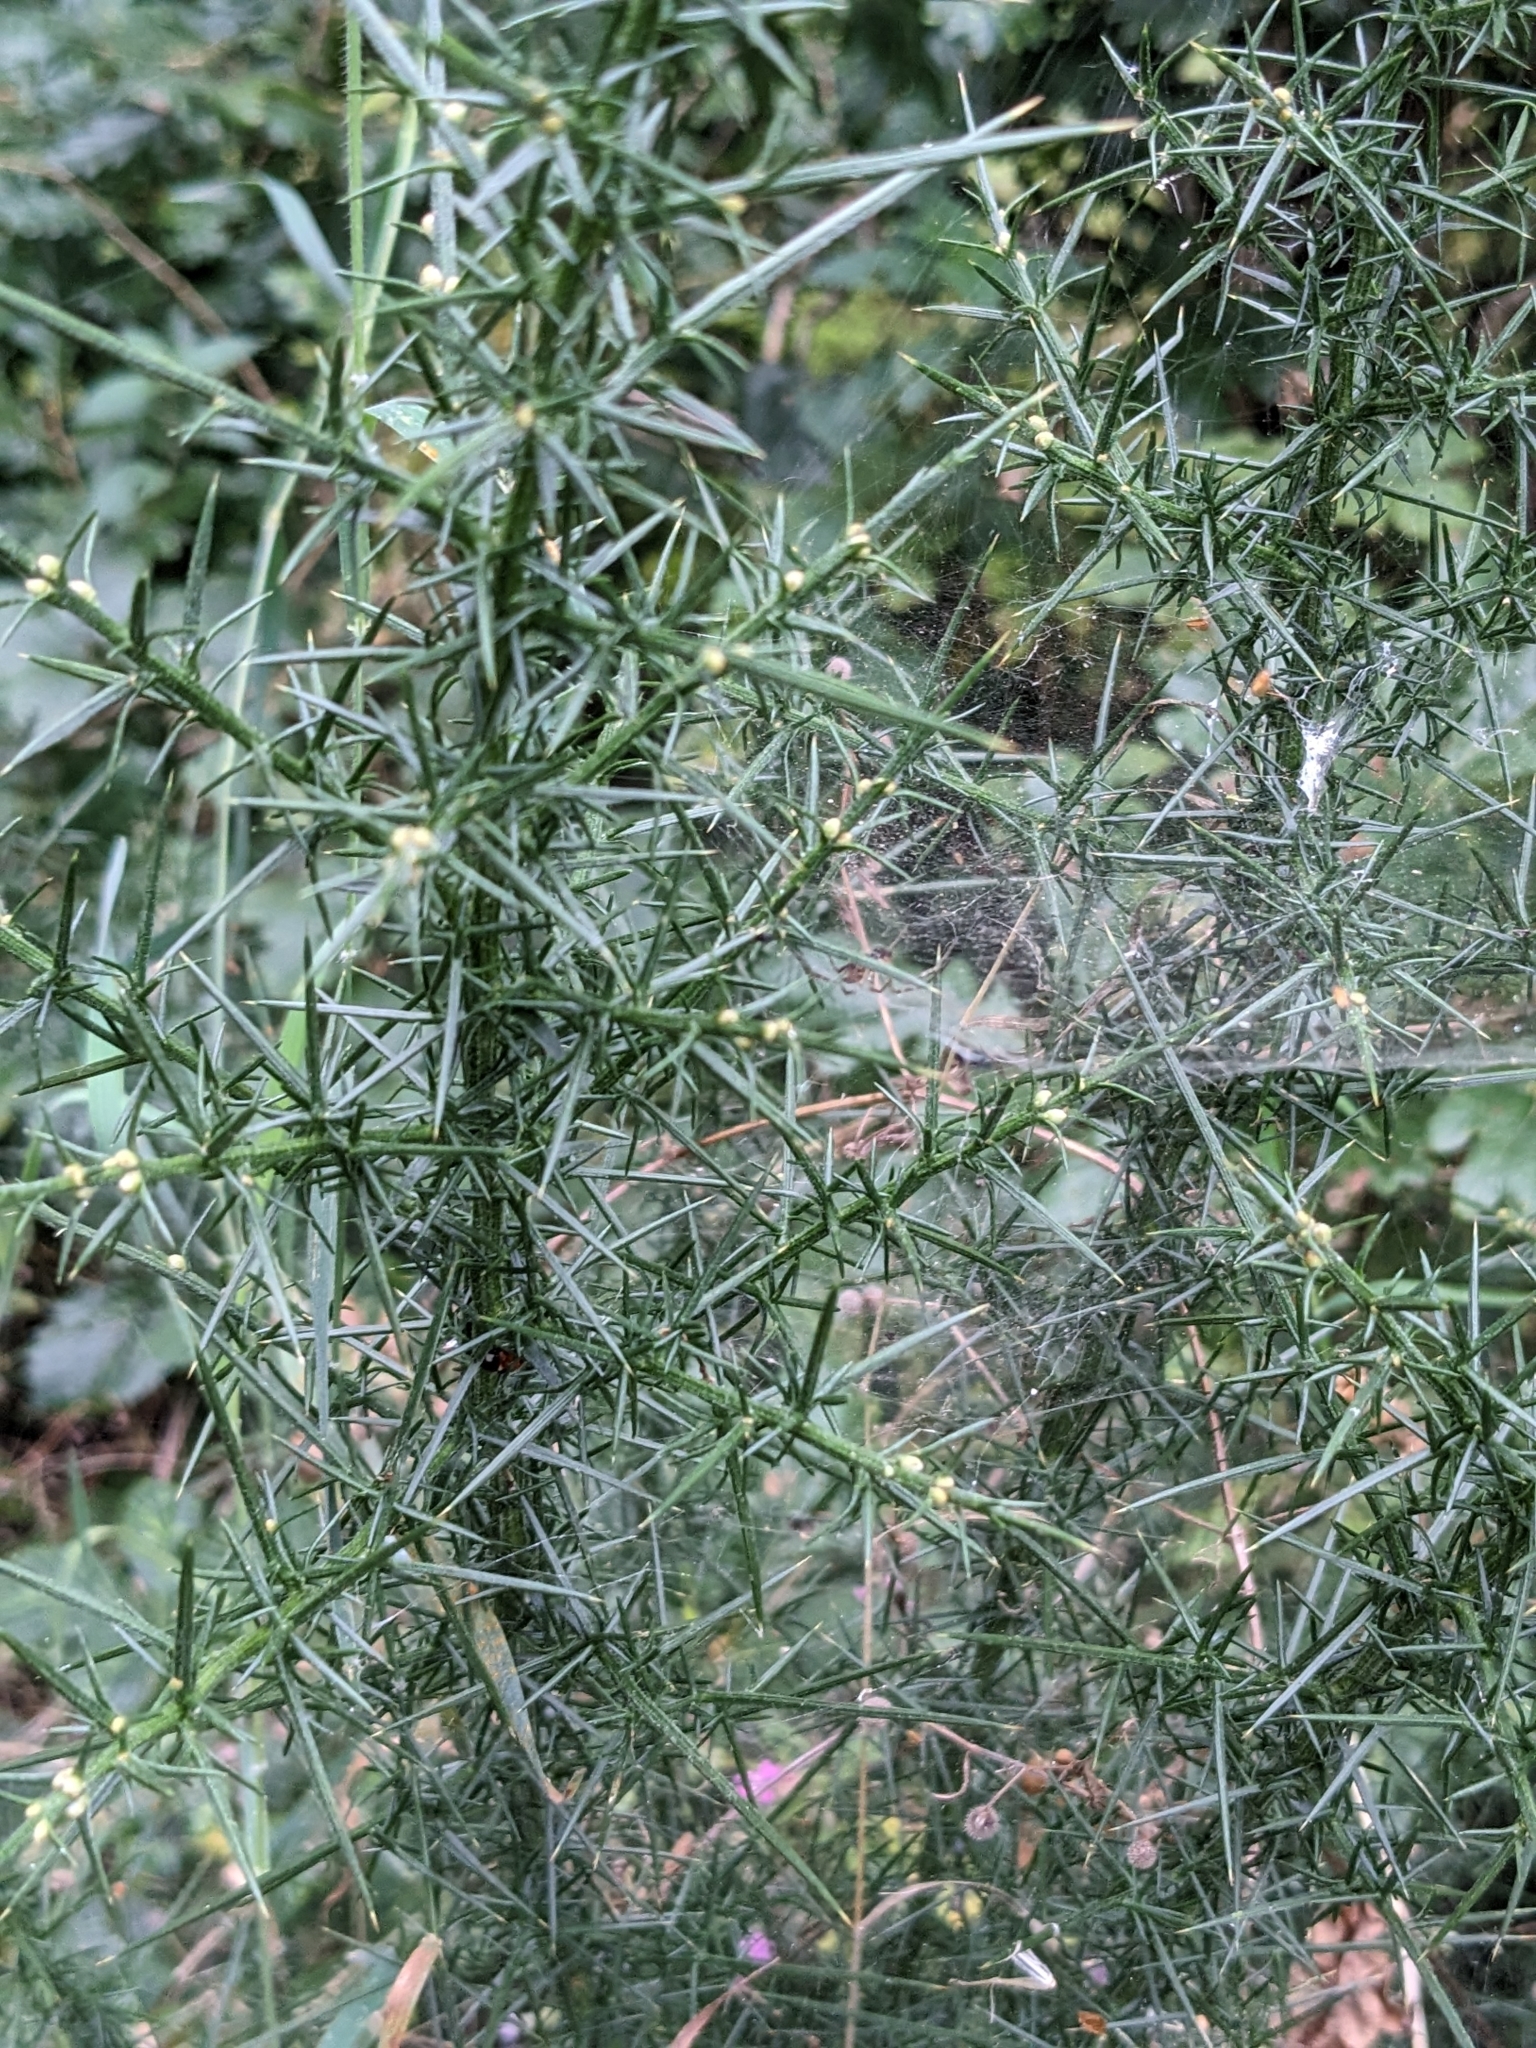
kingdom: Plantae
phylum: Tracheophyta
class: Magnoliopsida
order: Fabales
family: Fabaceae
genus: Ulex
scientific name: Ulex europaeus
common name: Common gorse
